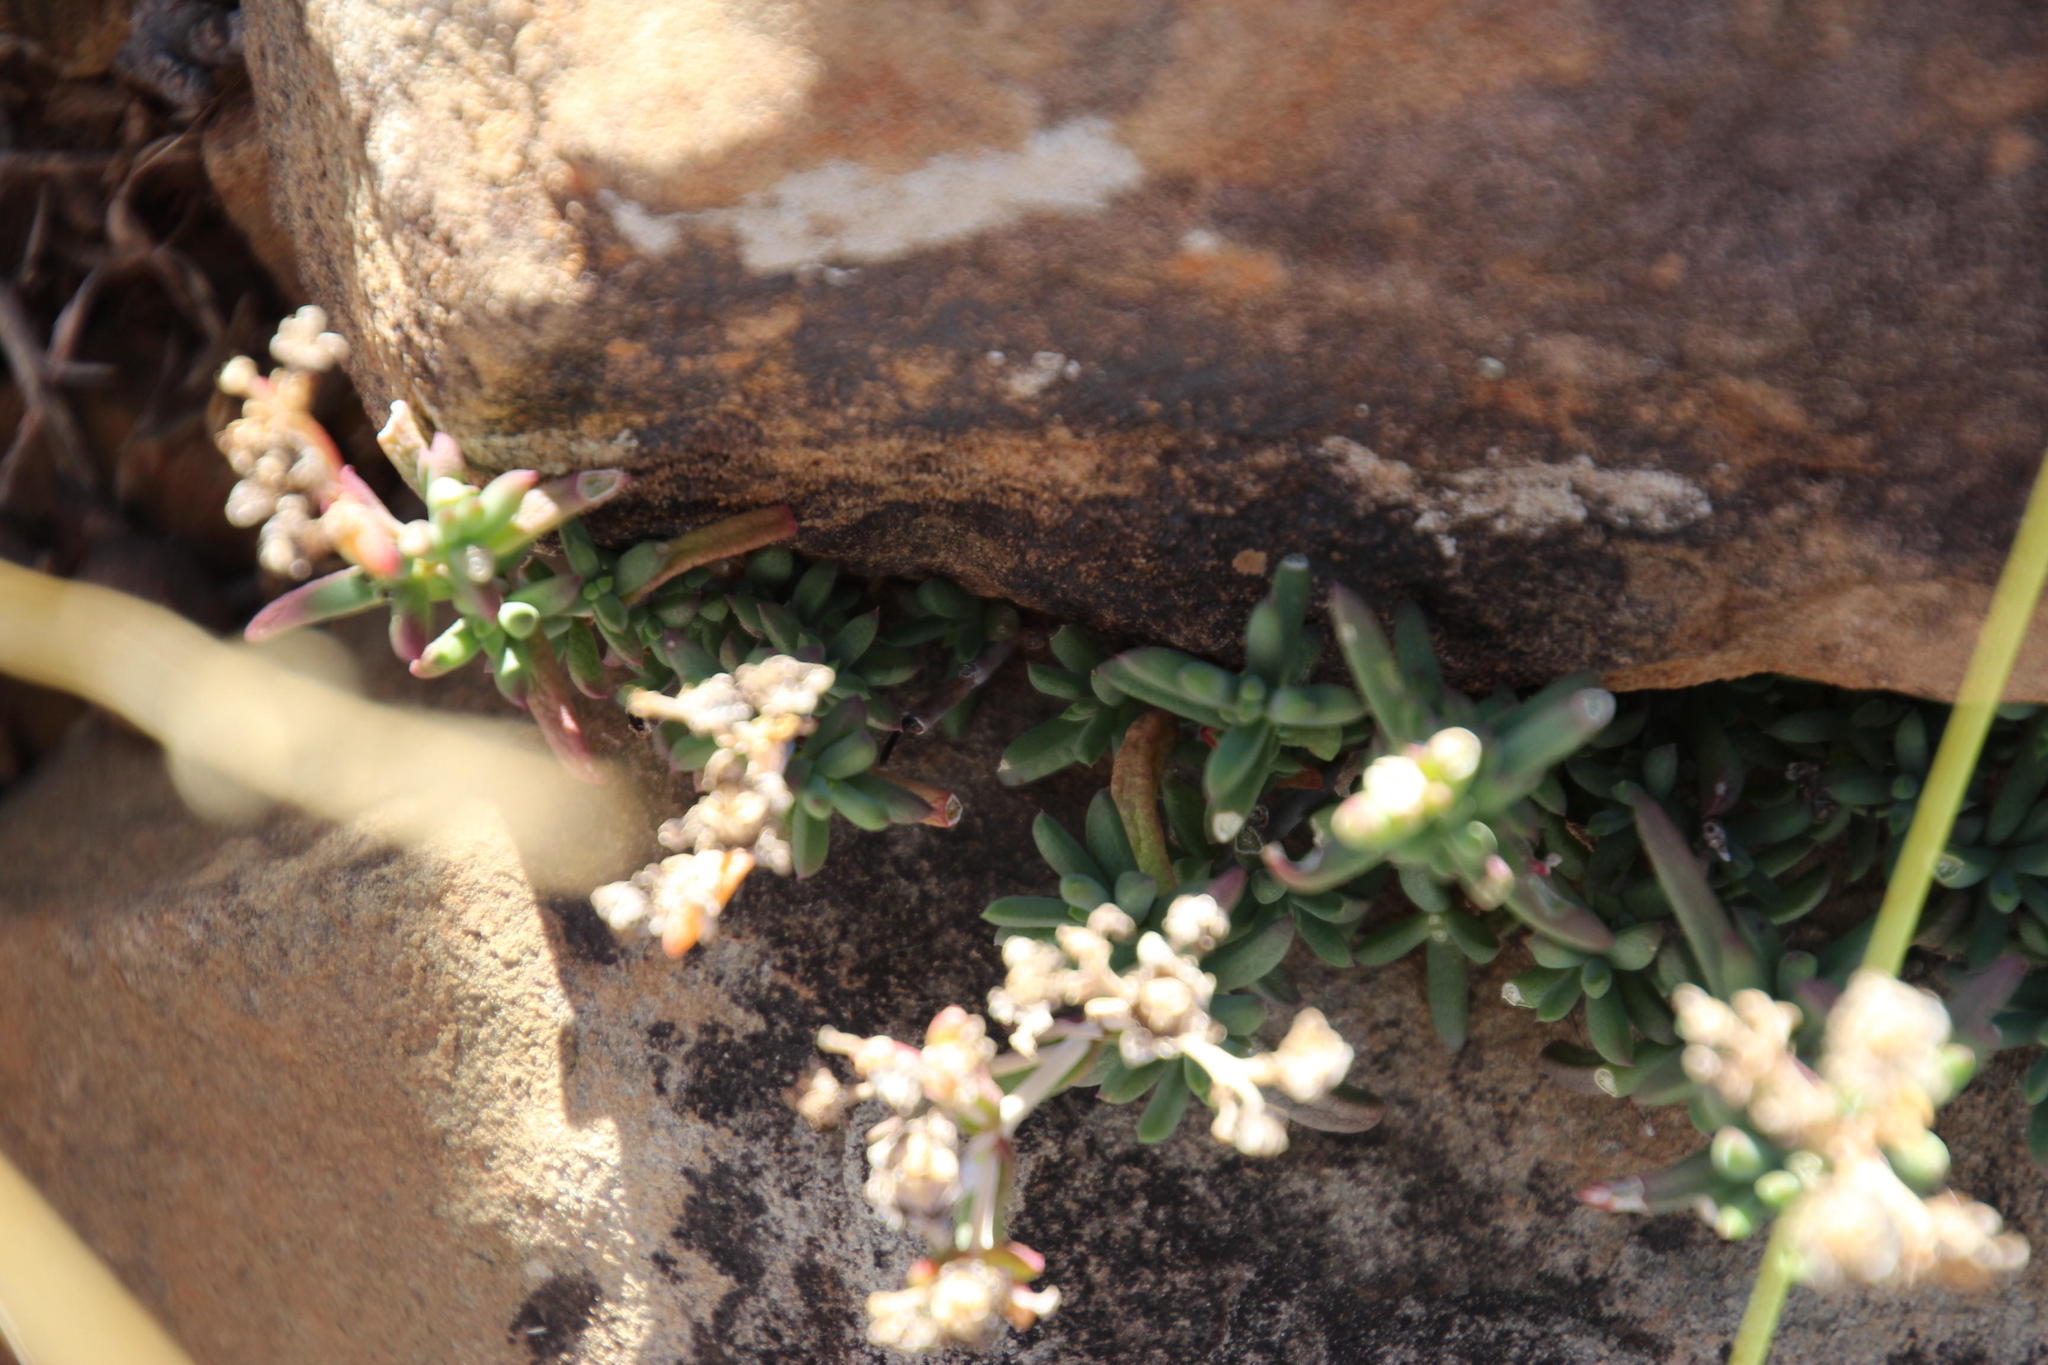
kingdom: Plantae
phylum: Tracheophyta
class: Magnoliopsida
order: Caryophyllales
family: Aizoaceae
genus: Delosperma
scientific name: Delosperma ornatulum
